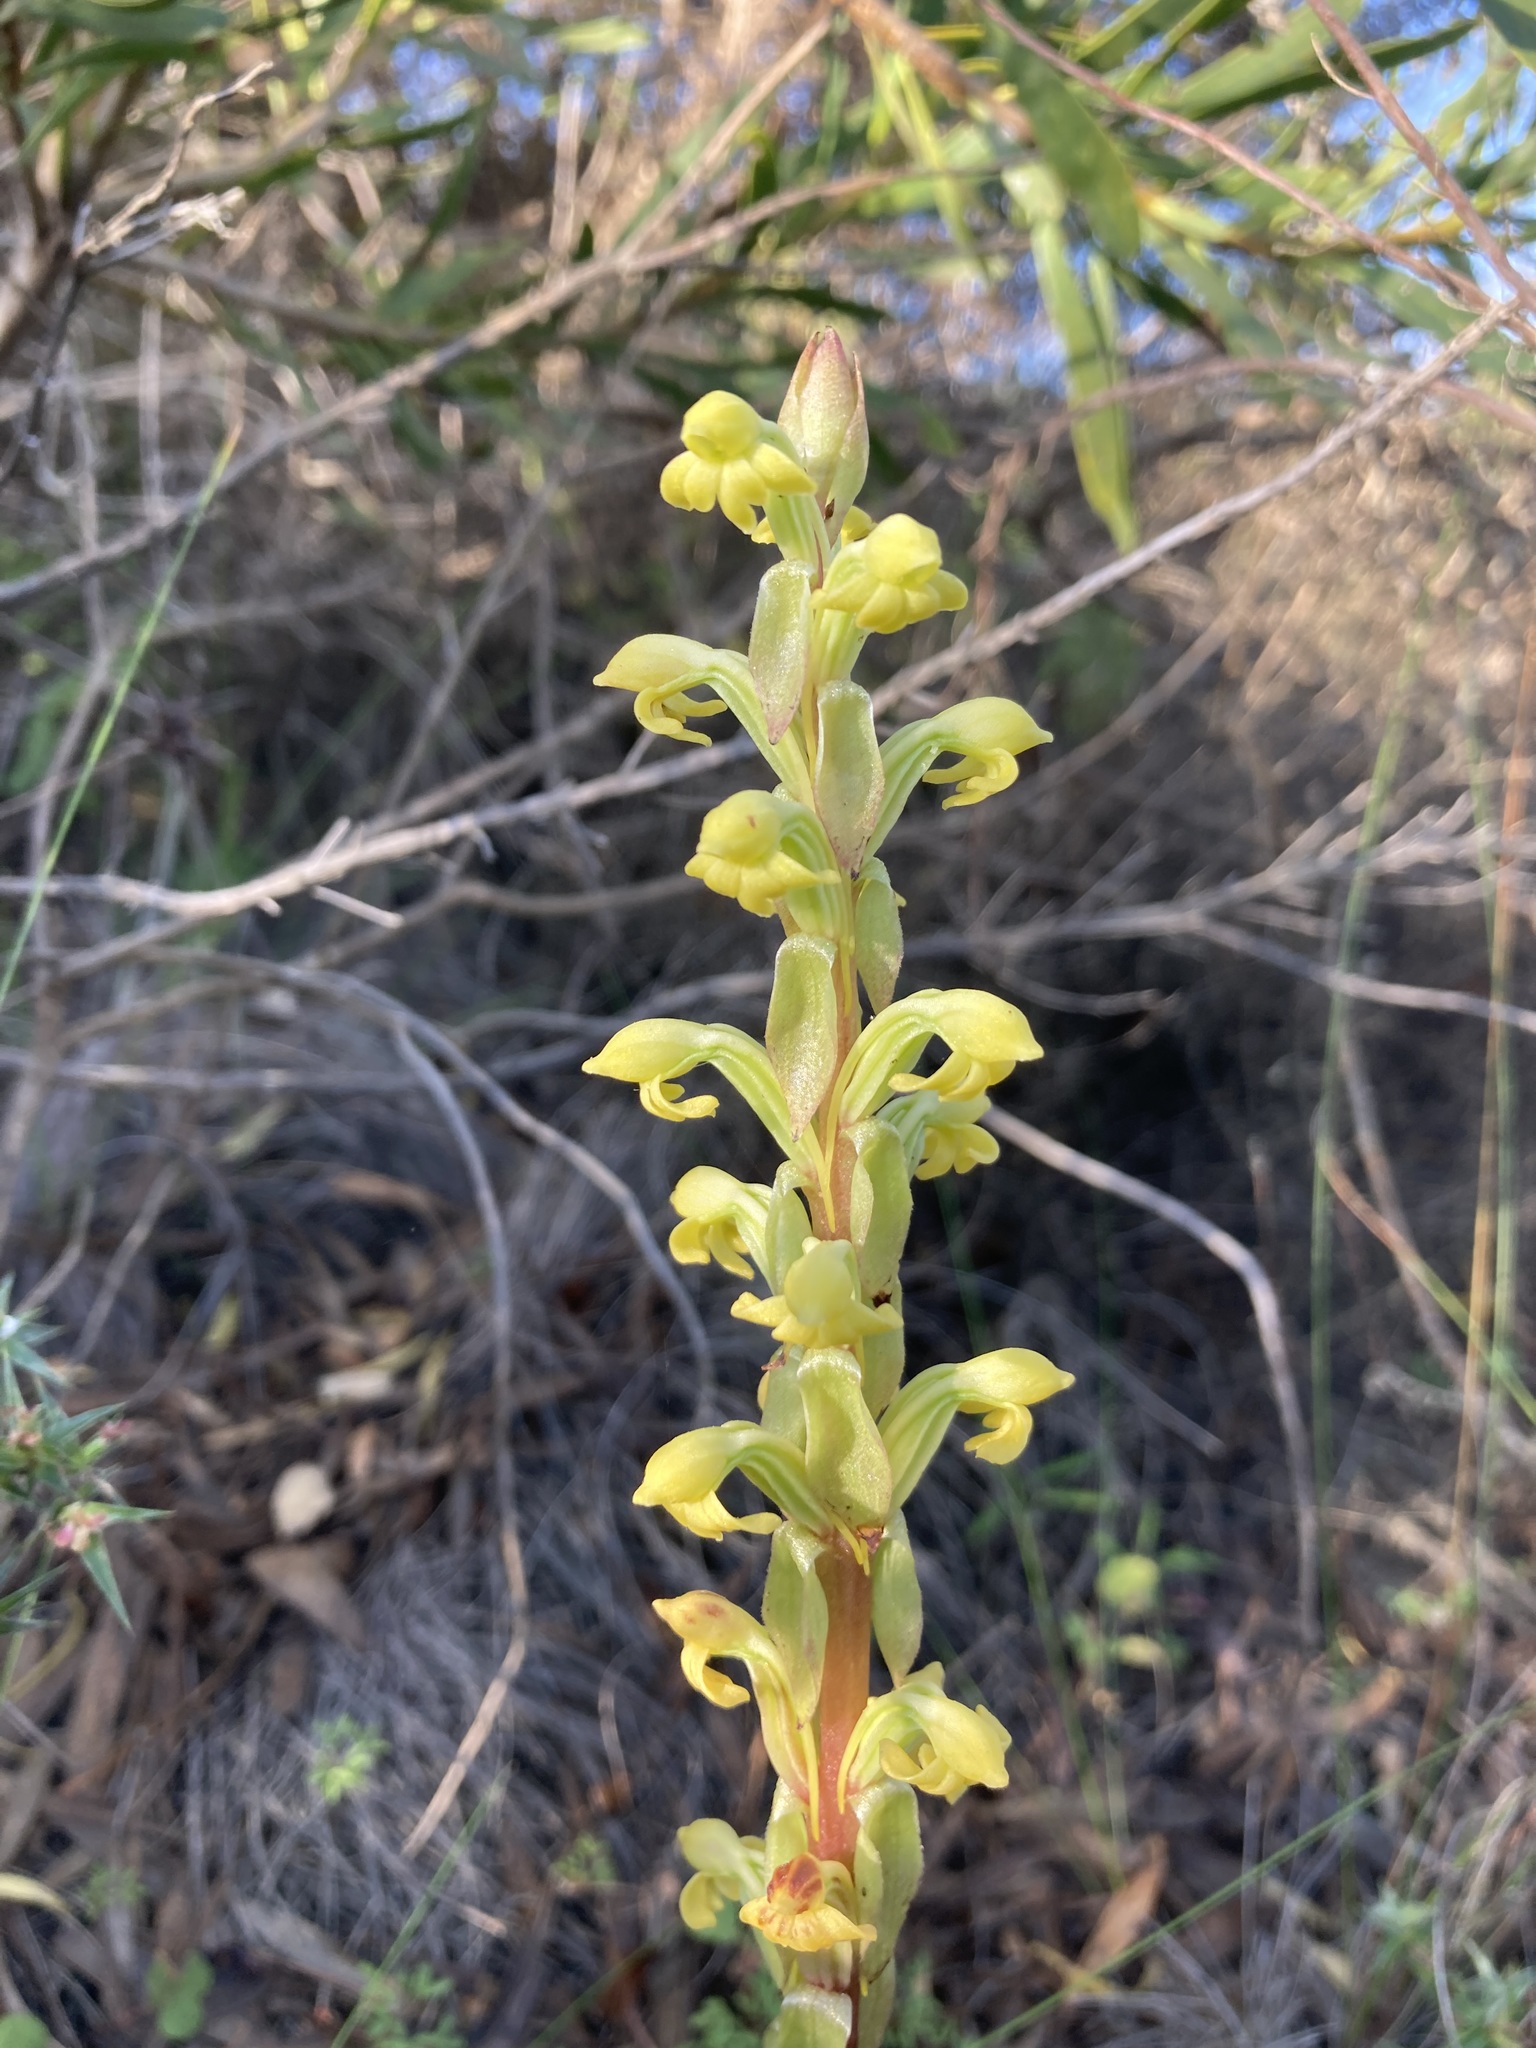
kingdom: Plantae
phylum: Tracheophyta
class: Liliopsida
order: Asparagales
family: Orchidaceae
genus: Satyrium
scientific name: Satyrium bicorne
